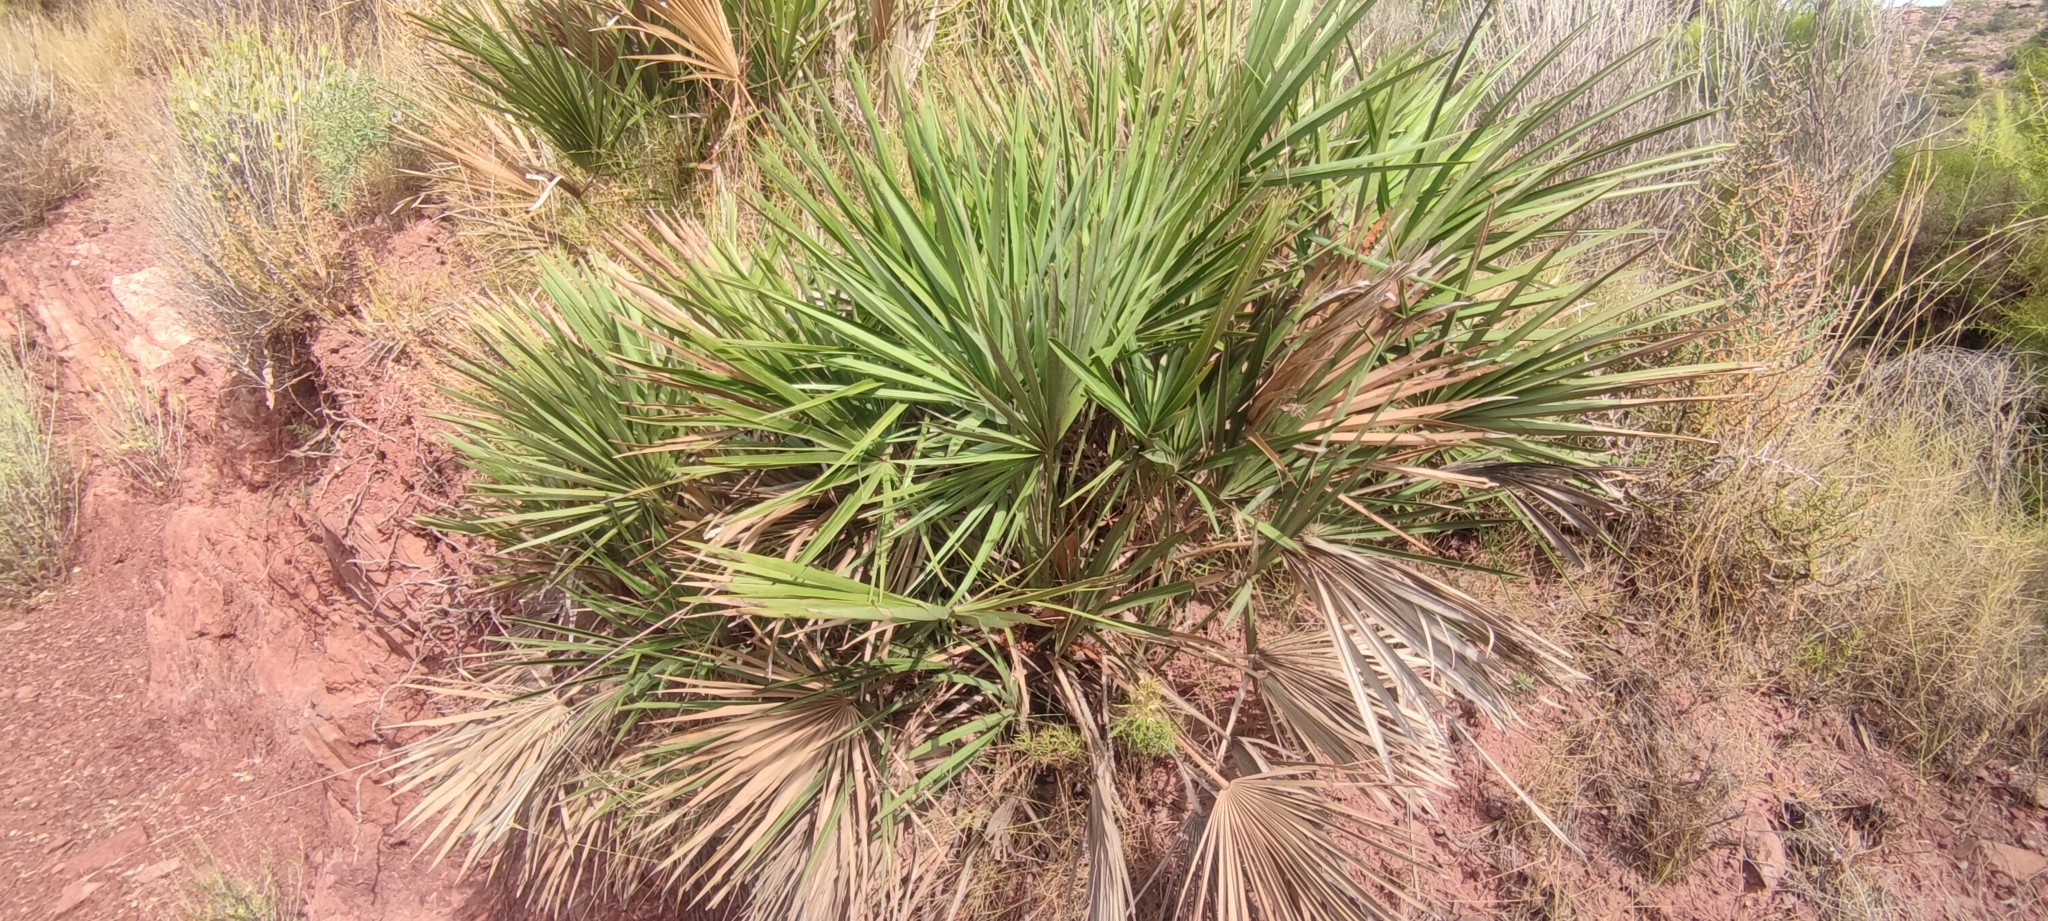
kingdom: Plantae
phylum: Tracheophyta
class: Liliopsida
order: Arecales
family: Arecaceae
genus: Chamaerops
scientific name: Chamaerops humilis
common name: Dwarf fan palm
